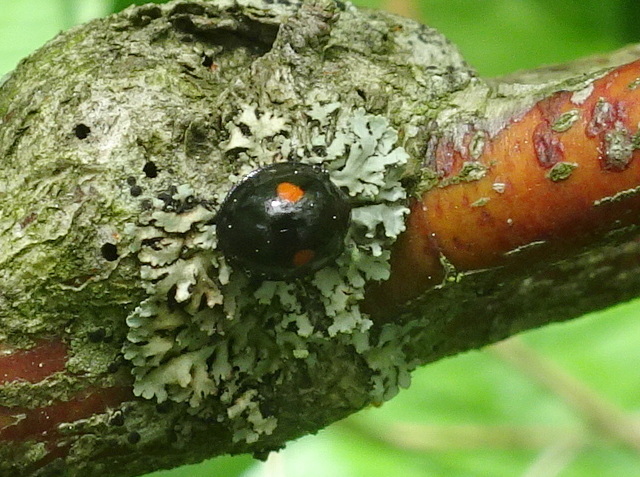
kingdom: Animalia
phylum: Arthropoda
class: Insecta
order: Coleoptera
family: Coccinellidae
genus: Chilocorus
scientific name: Chilocorus stigma
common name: Twicestabbed lady beetle
